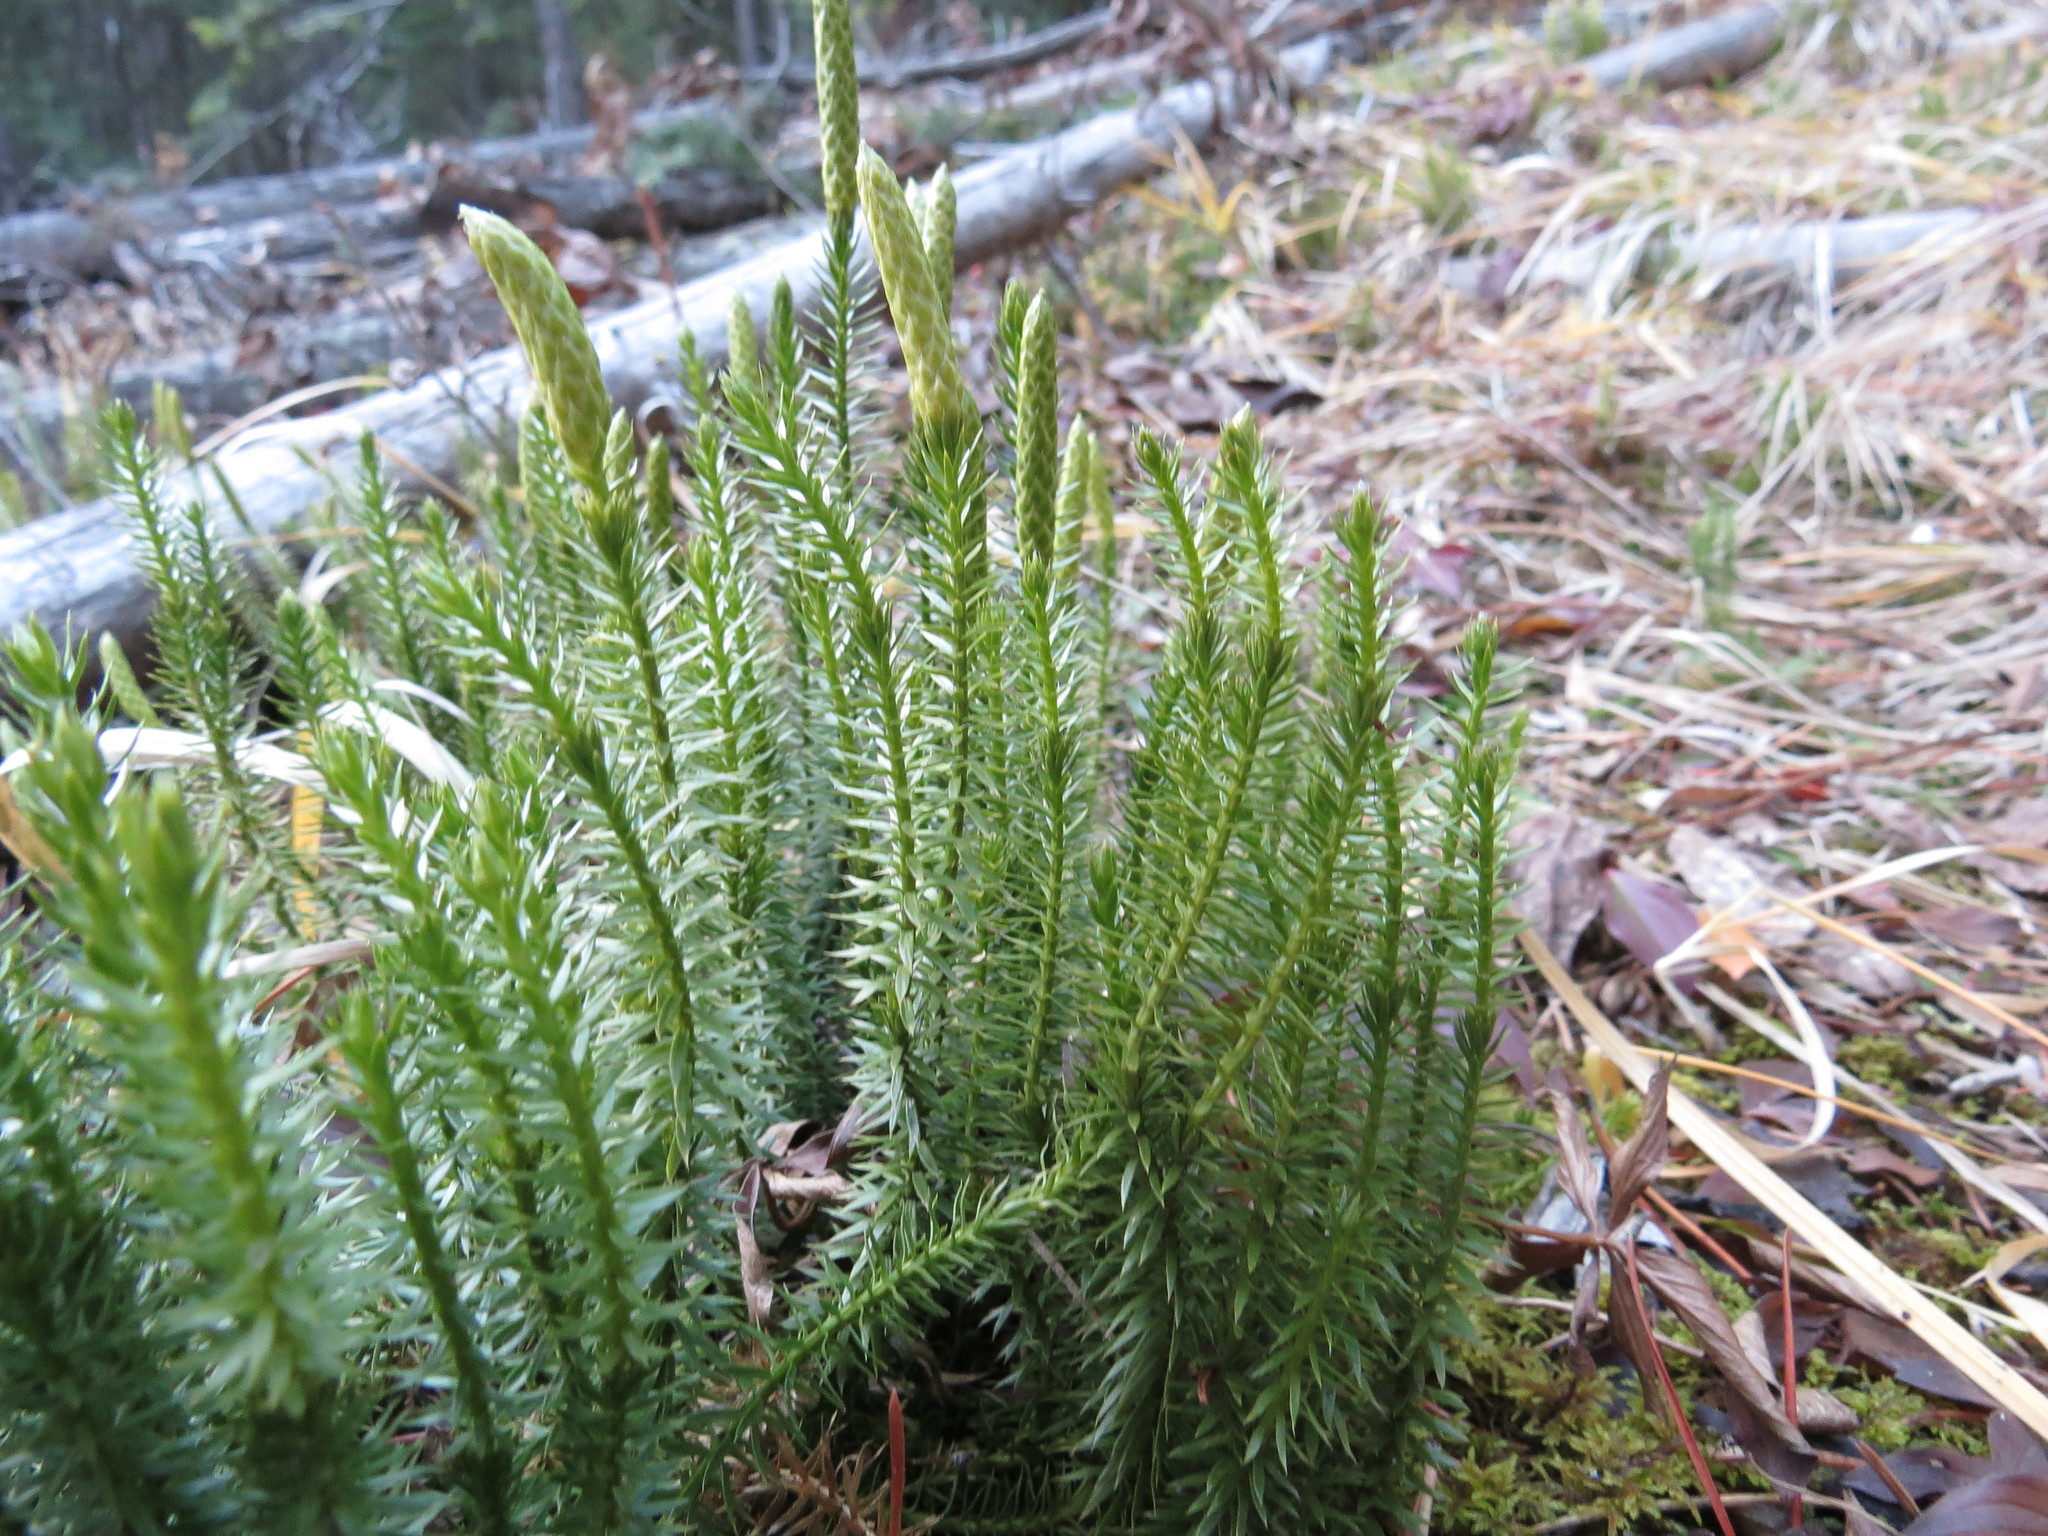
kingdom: Plantae
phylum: Tracheophyta
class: Lycopodiopsida
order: Lycopodiales
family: Lycopodiaceae
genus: Spinulum
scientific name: Spinulum annotinum
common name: Interrupted club-moss
